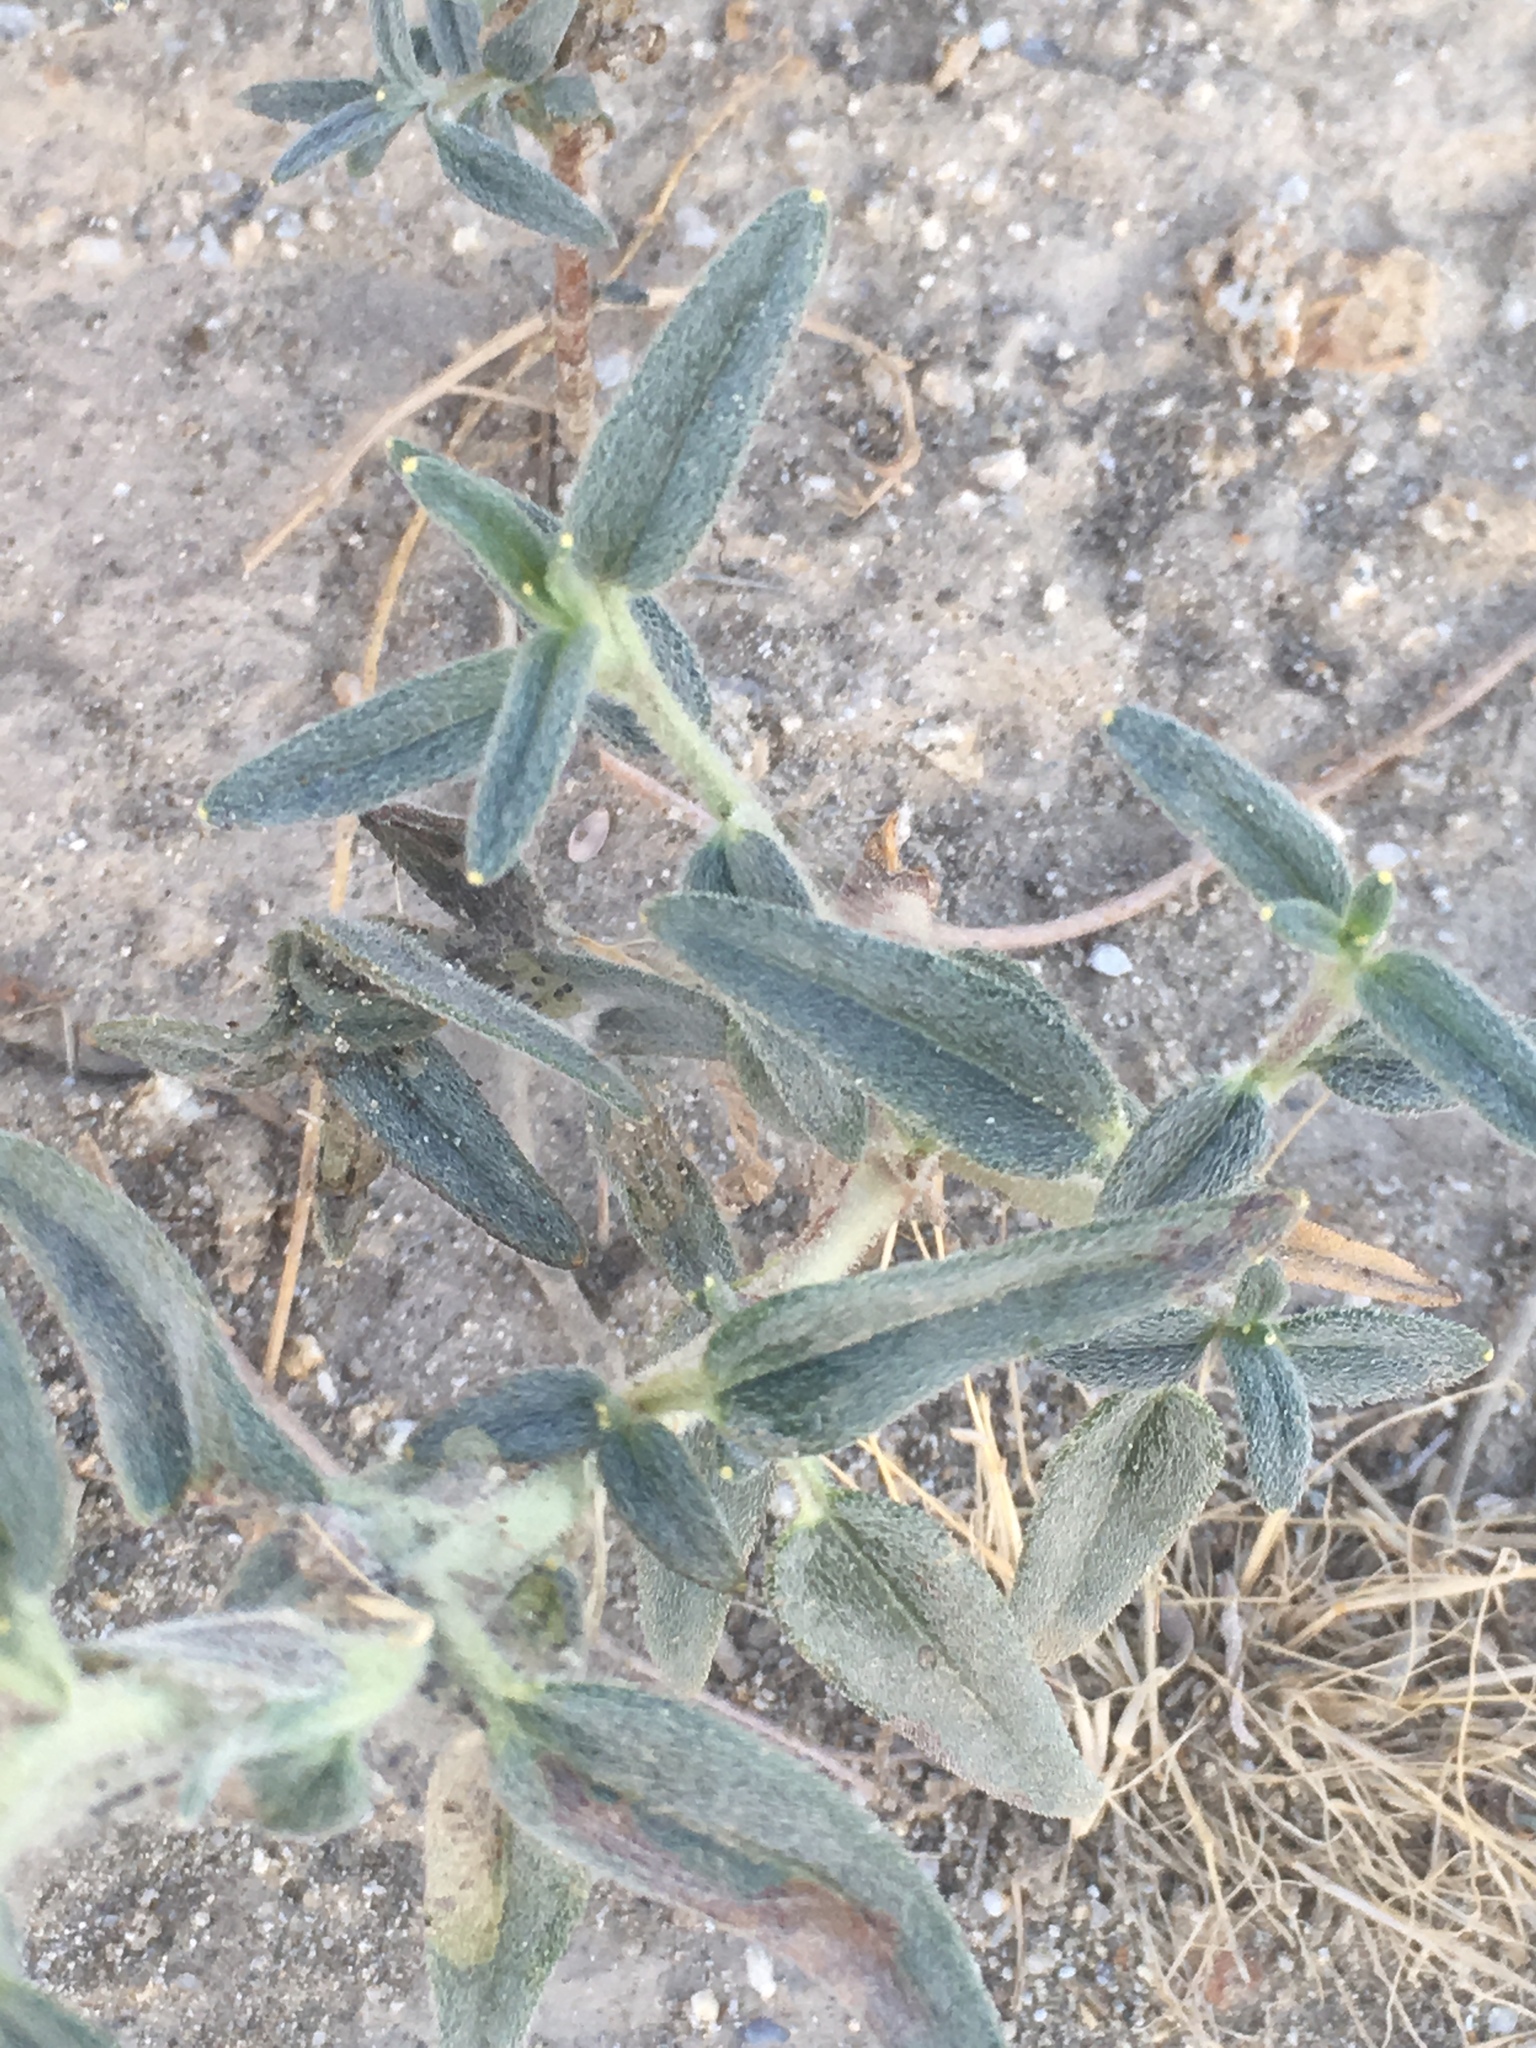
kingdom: Plantae
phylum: Tracheophyta
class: Magnoliopsida
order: Asterales
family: Asteraceae
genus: Palafoxia
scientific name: Palafoxia arida
